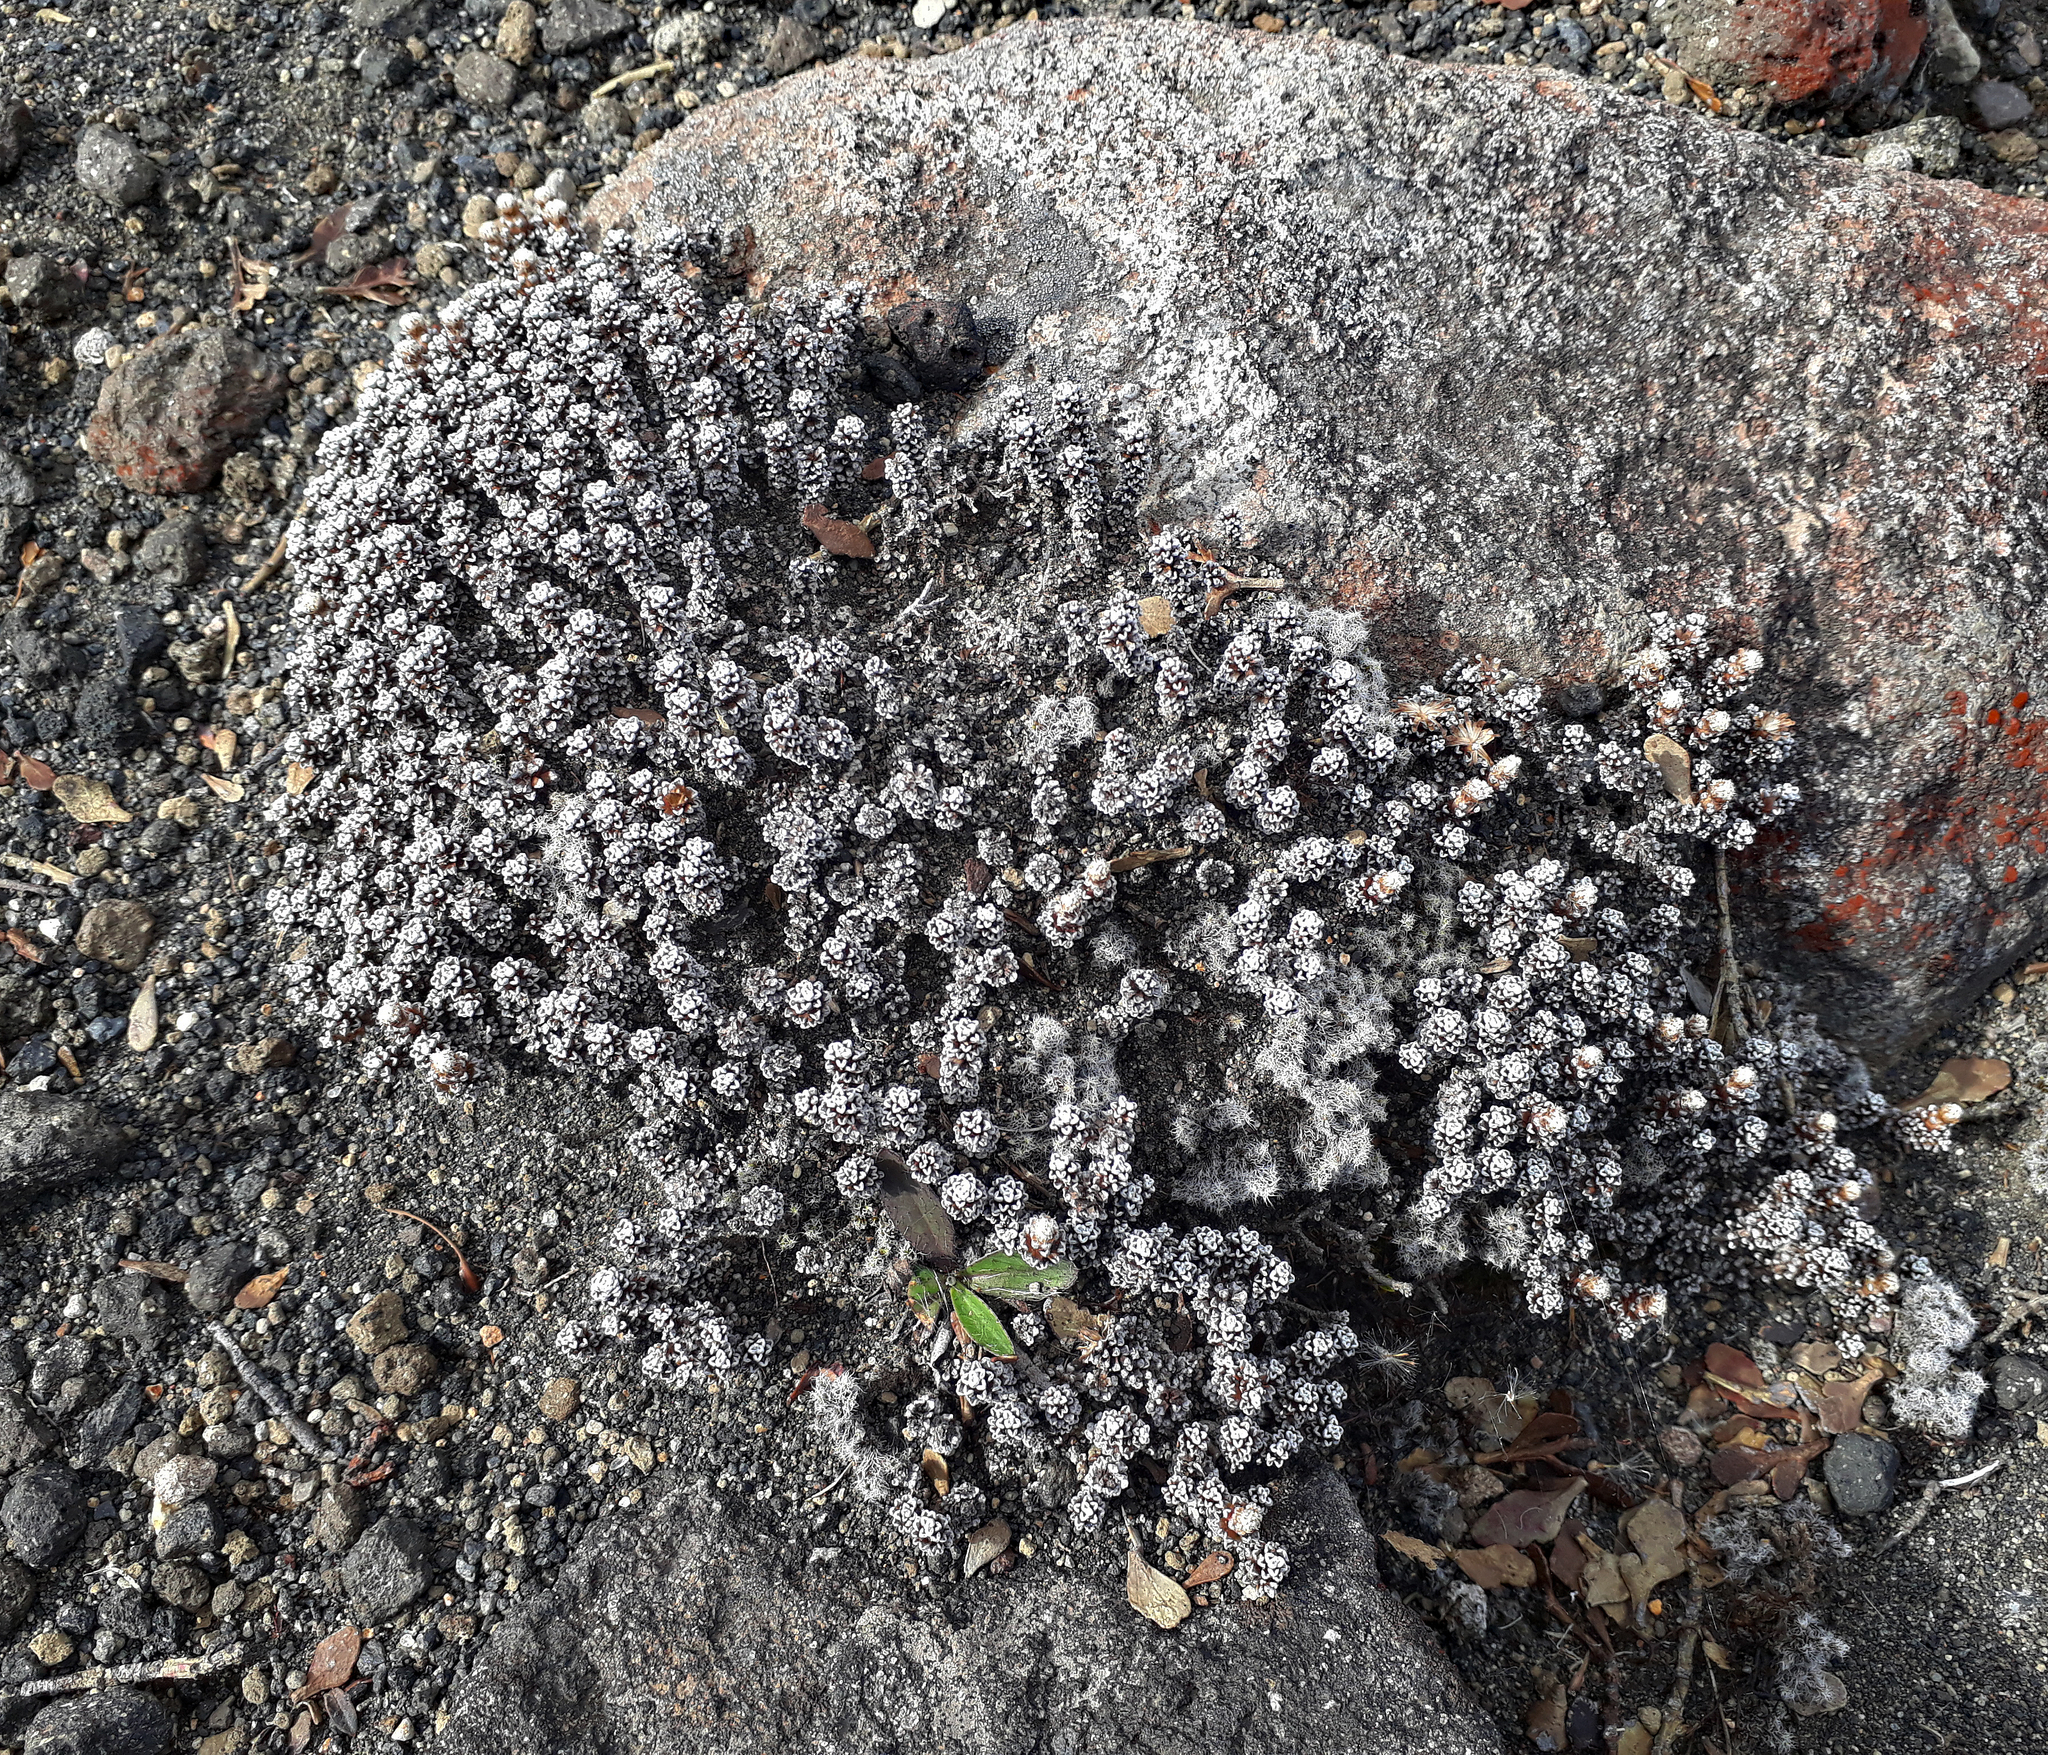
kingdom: Plantae
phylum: Tracheophyta
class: Magnoliopsida
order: Asterales
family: Asteraceae
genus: Raoulia
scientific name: Raoulia albosericea
